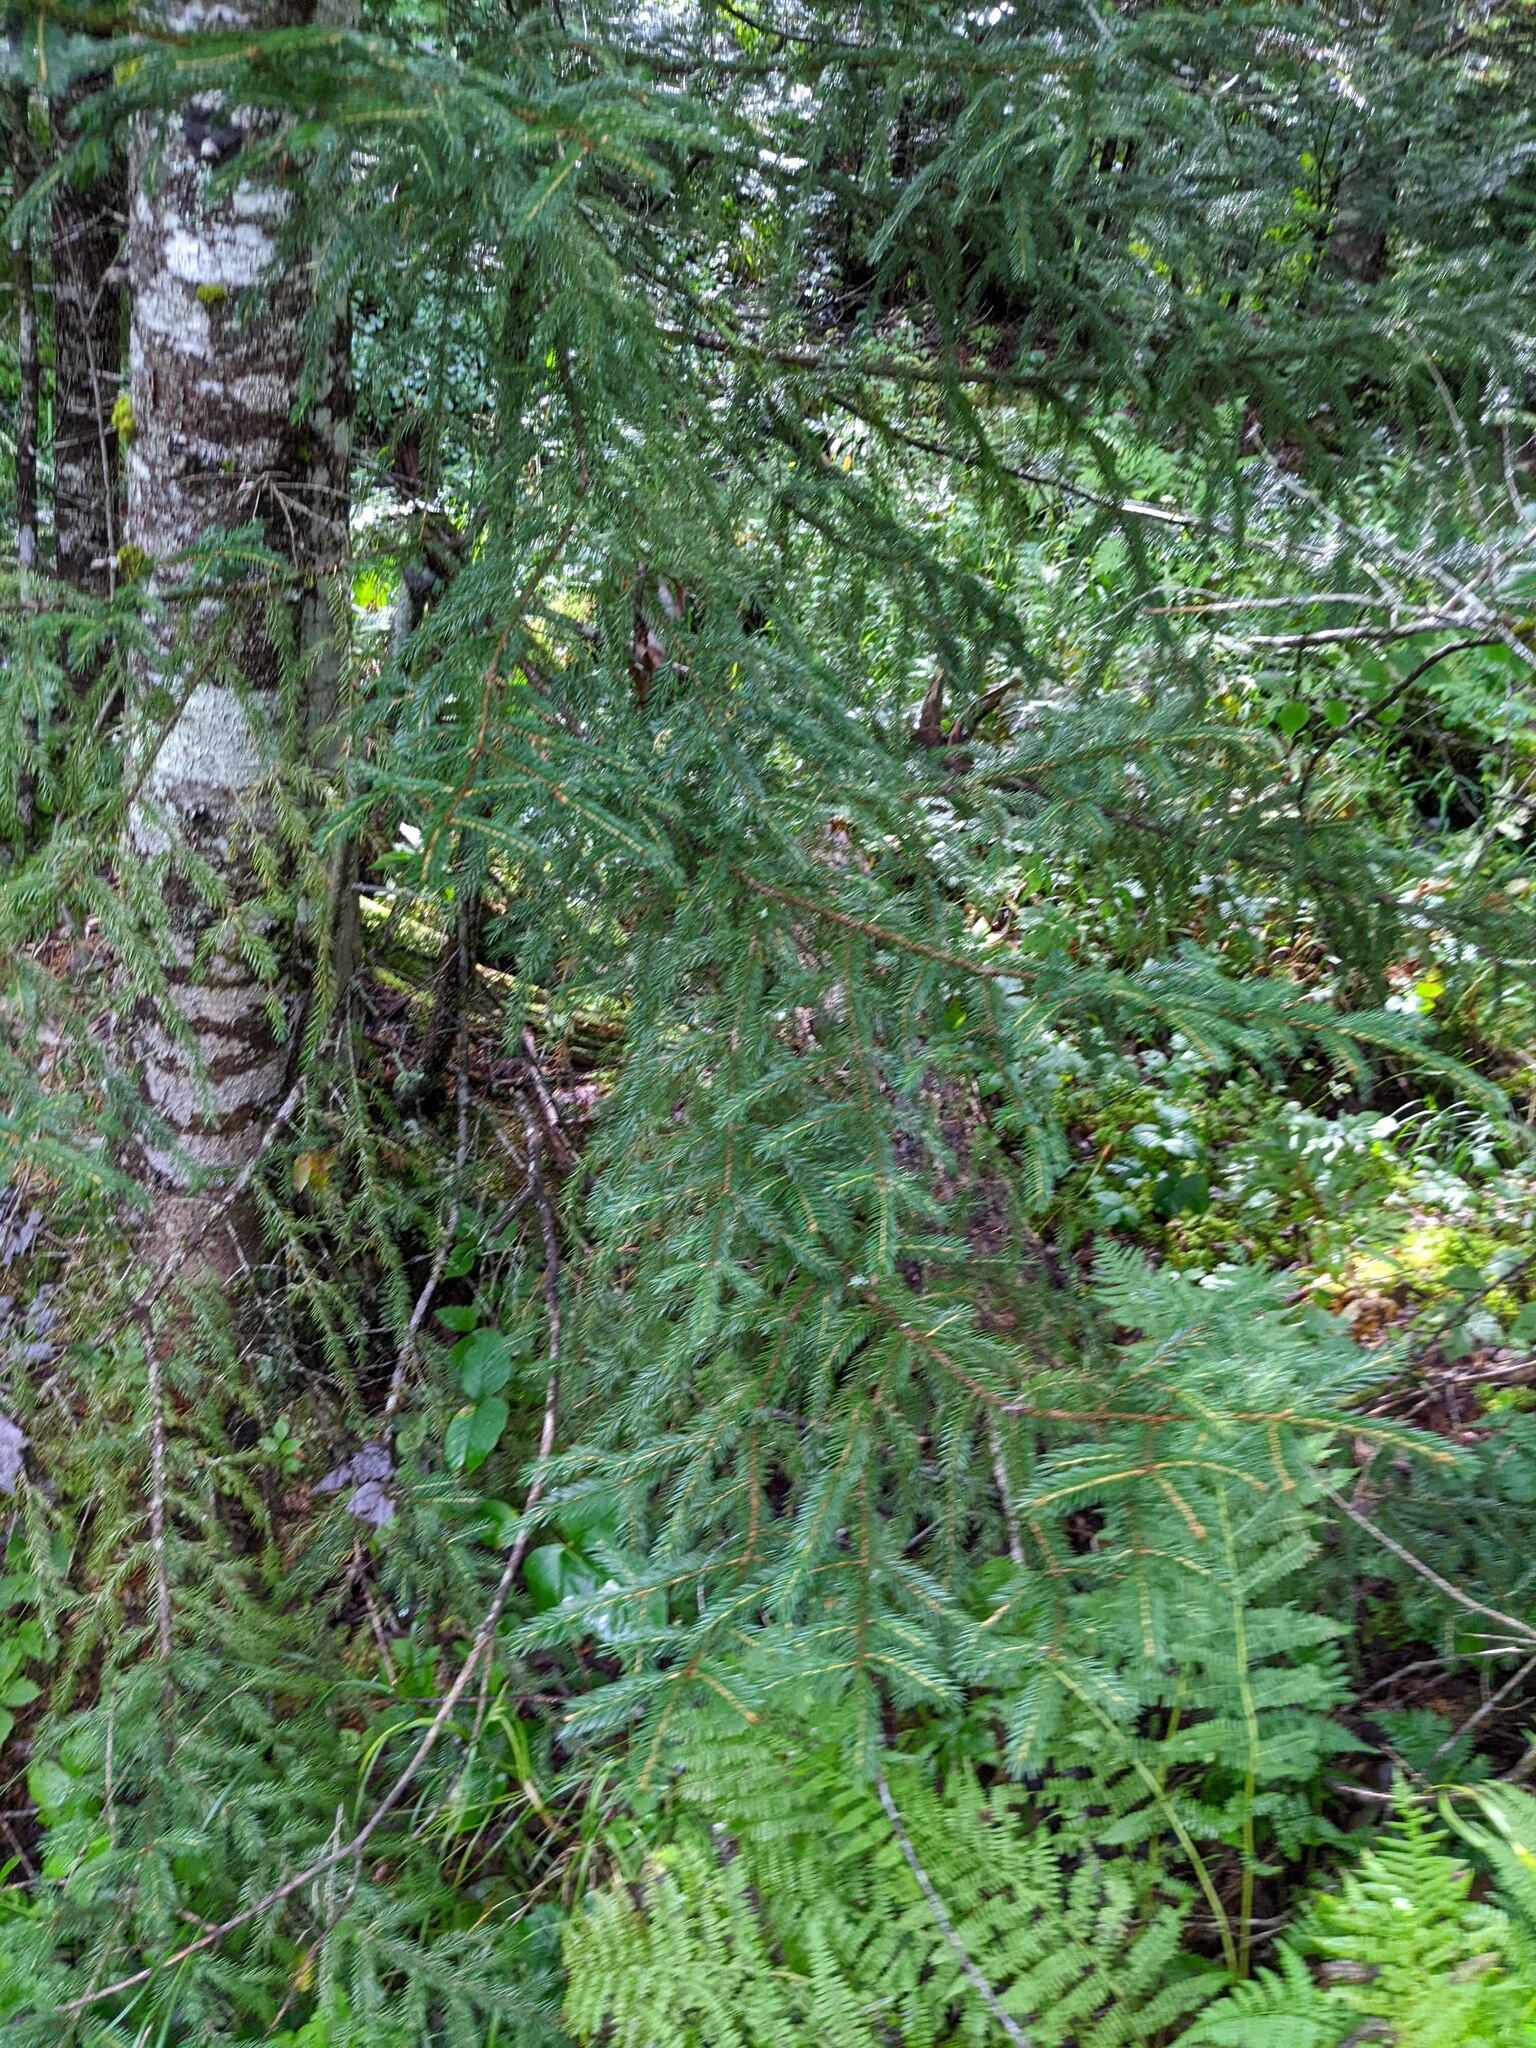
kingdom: Plantae
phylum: Tracheophyta
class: Pinopsida
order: Pinales
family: Pinaceae
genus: Picea
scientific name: Picea rubens
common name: Red spruce
